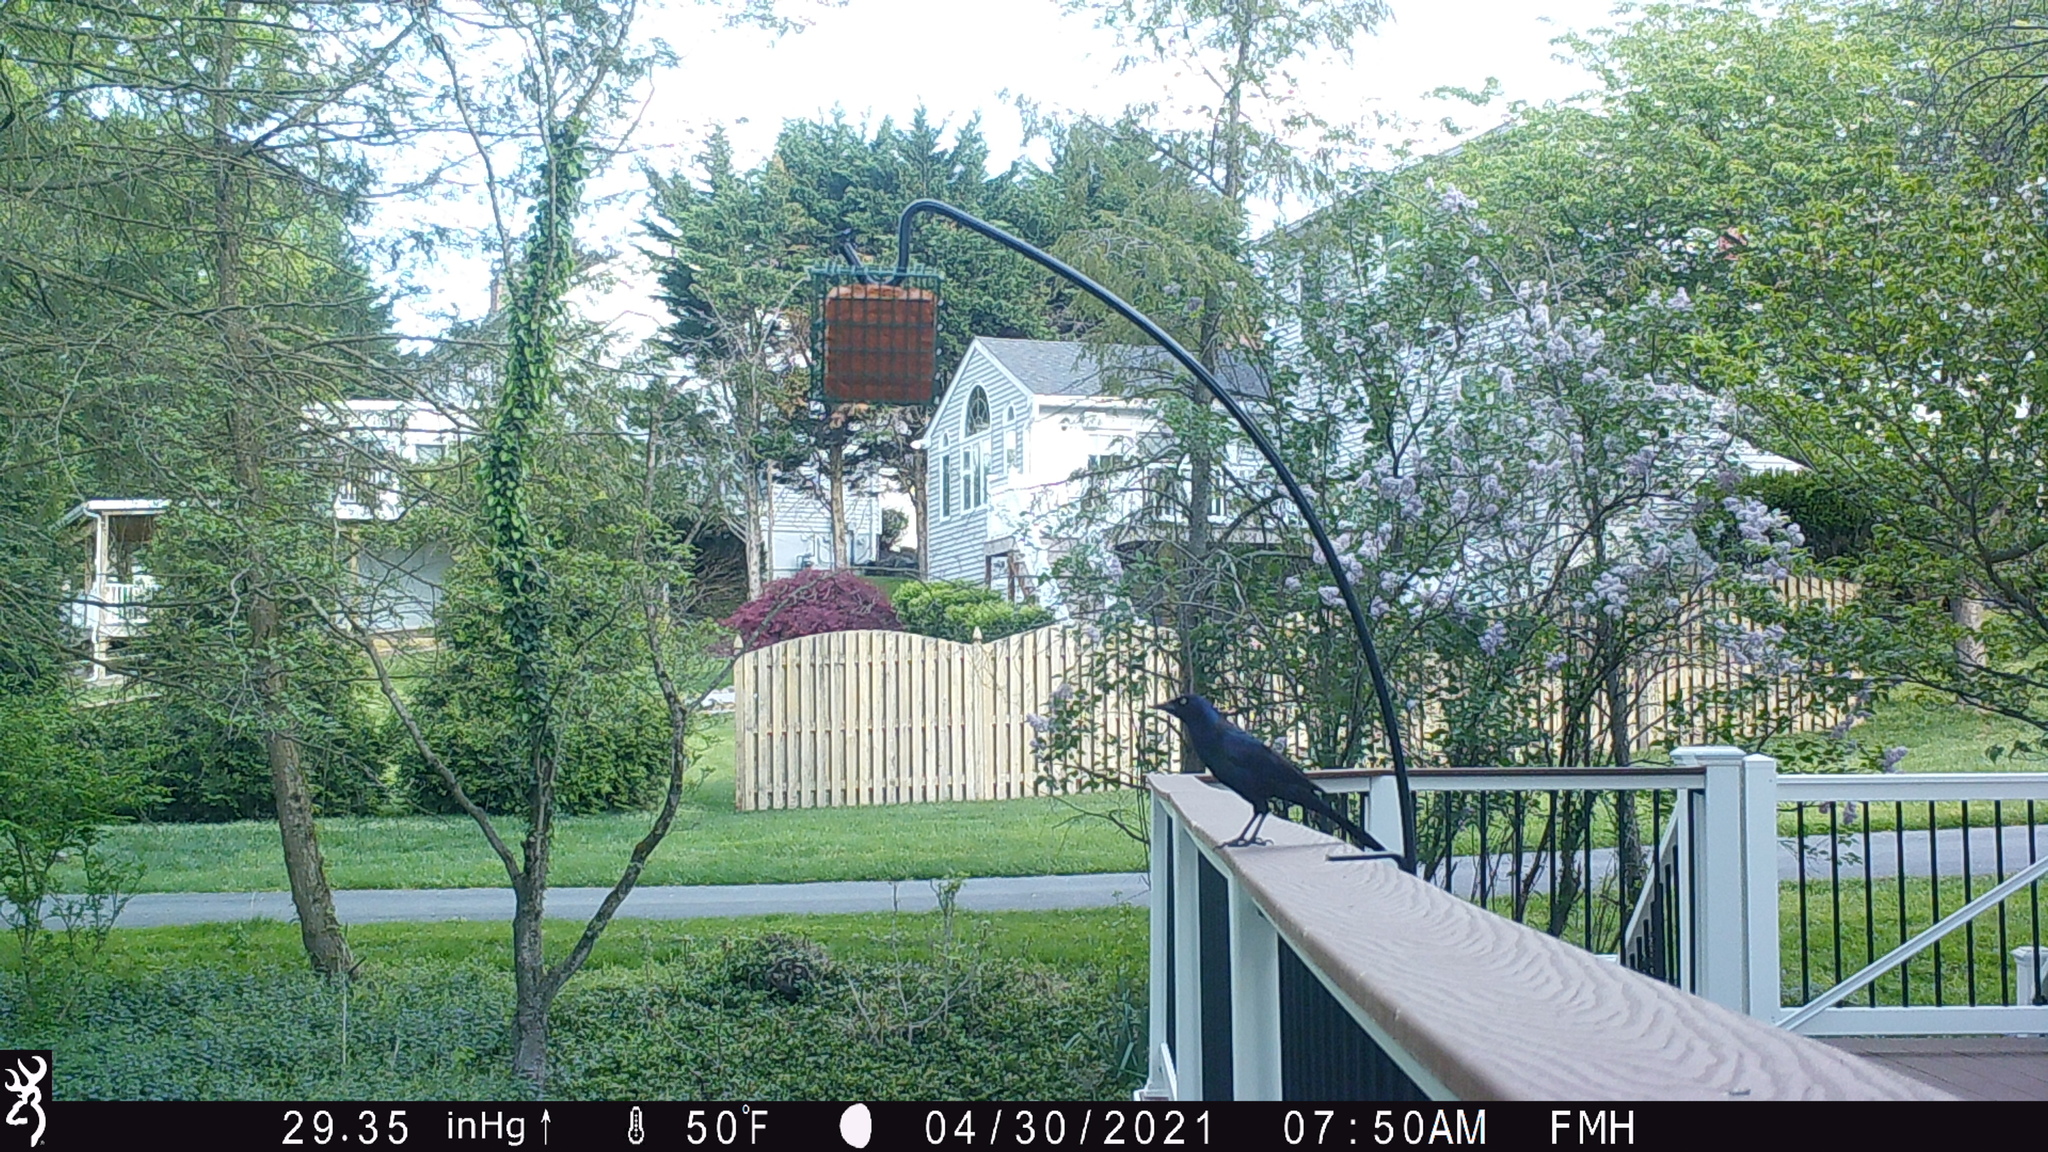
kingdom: Animalia
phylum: Chordata
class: Aves
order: Passeriformes
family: Icteridae
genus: Quiscalus
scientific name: Quiscalus quiscula
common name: Common grackle
